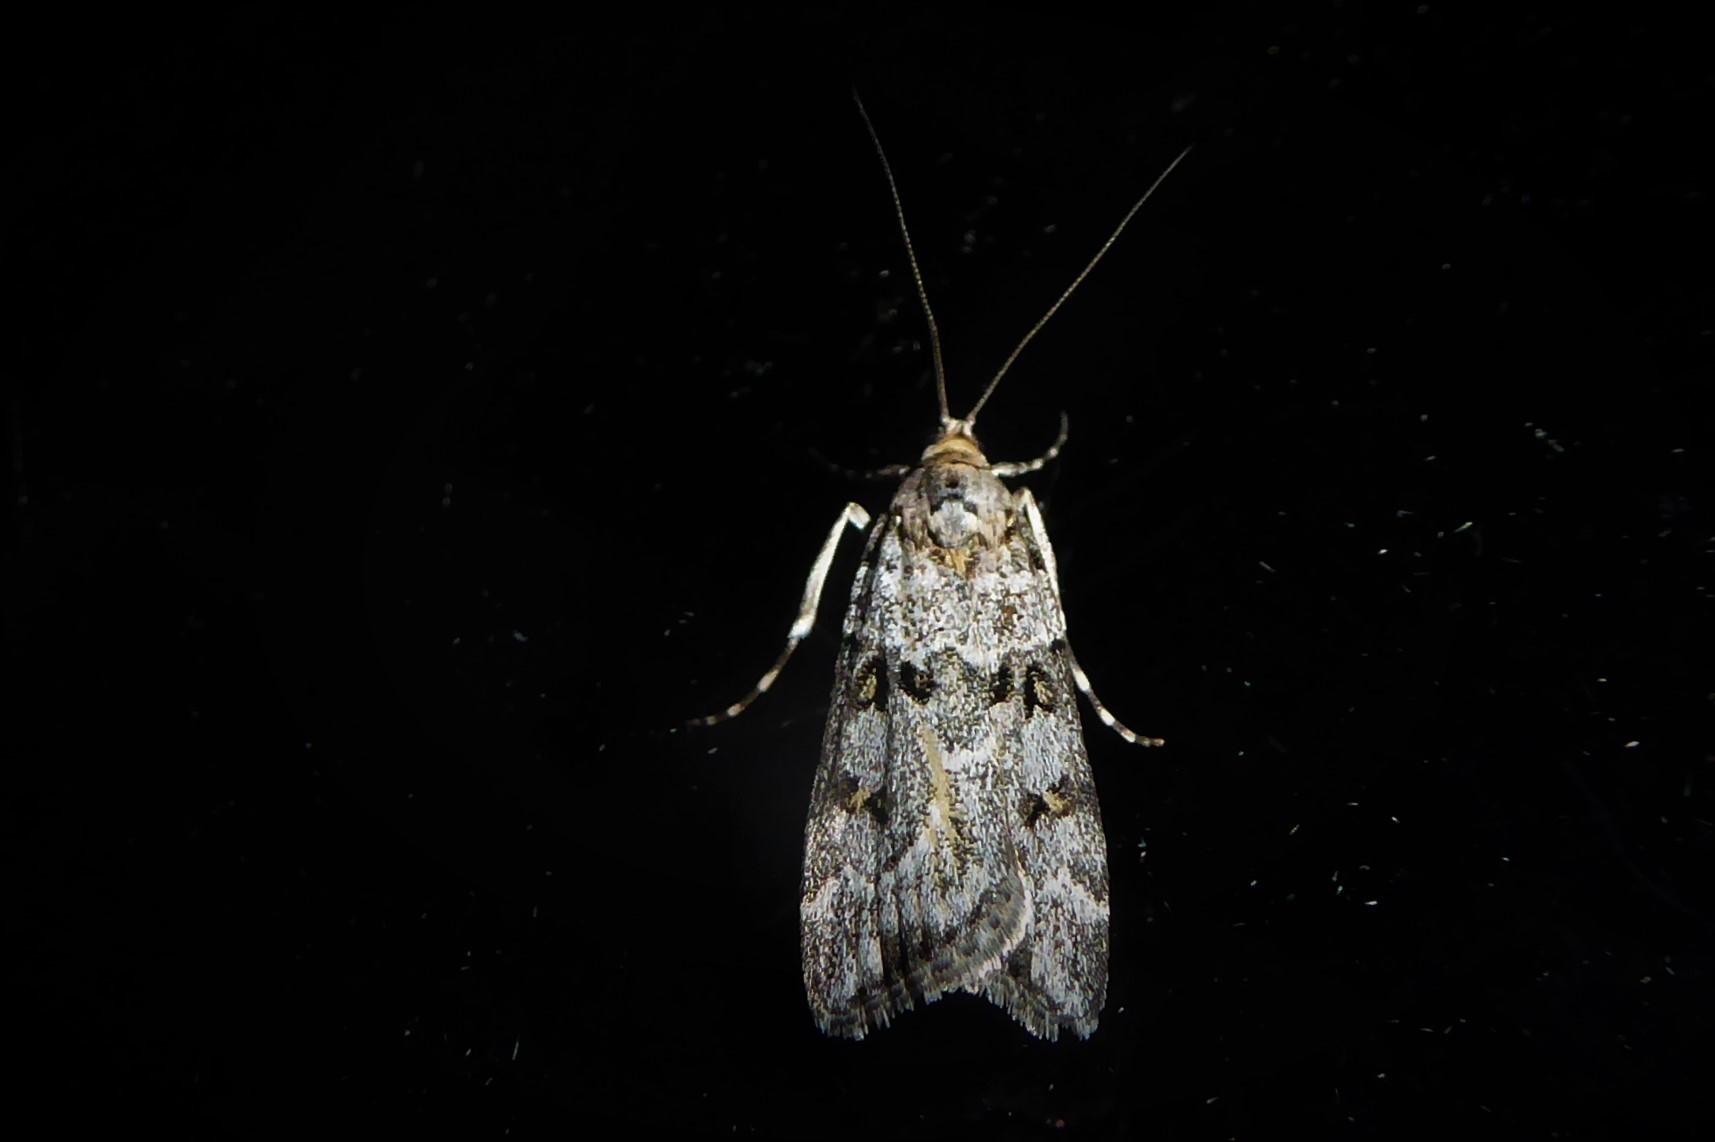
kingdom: Animalia
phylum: Arthropoda
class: Insecta
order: Lepidoptera
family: Crambidae
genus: Eudonia
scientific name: Eudonia diphtheralis
